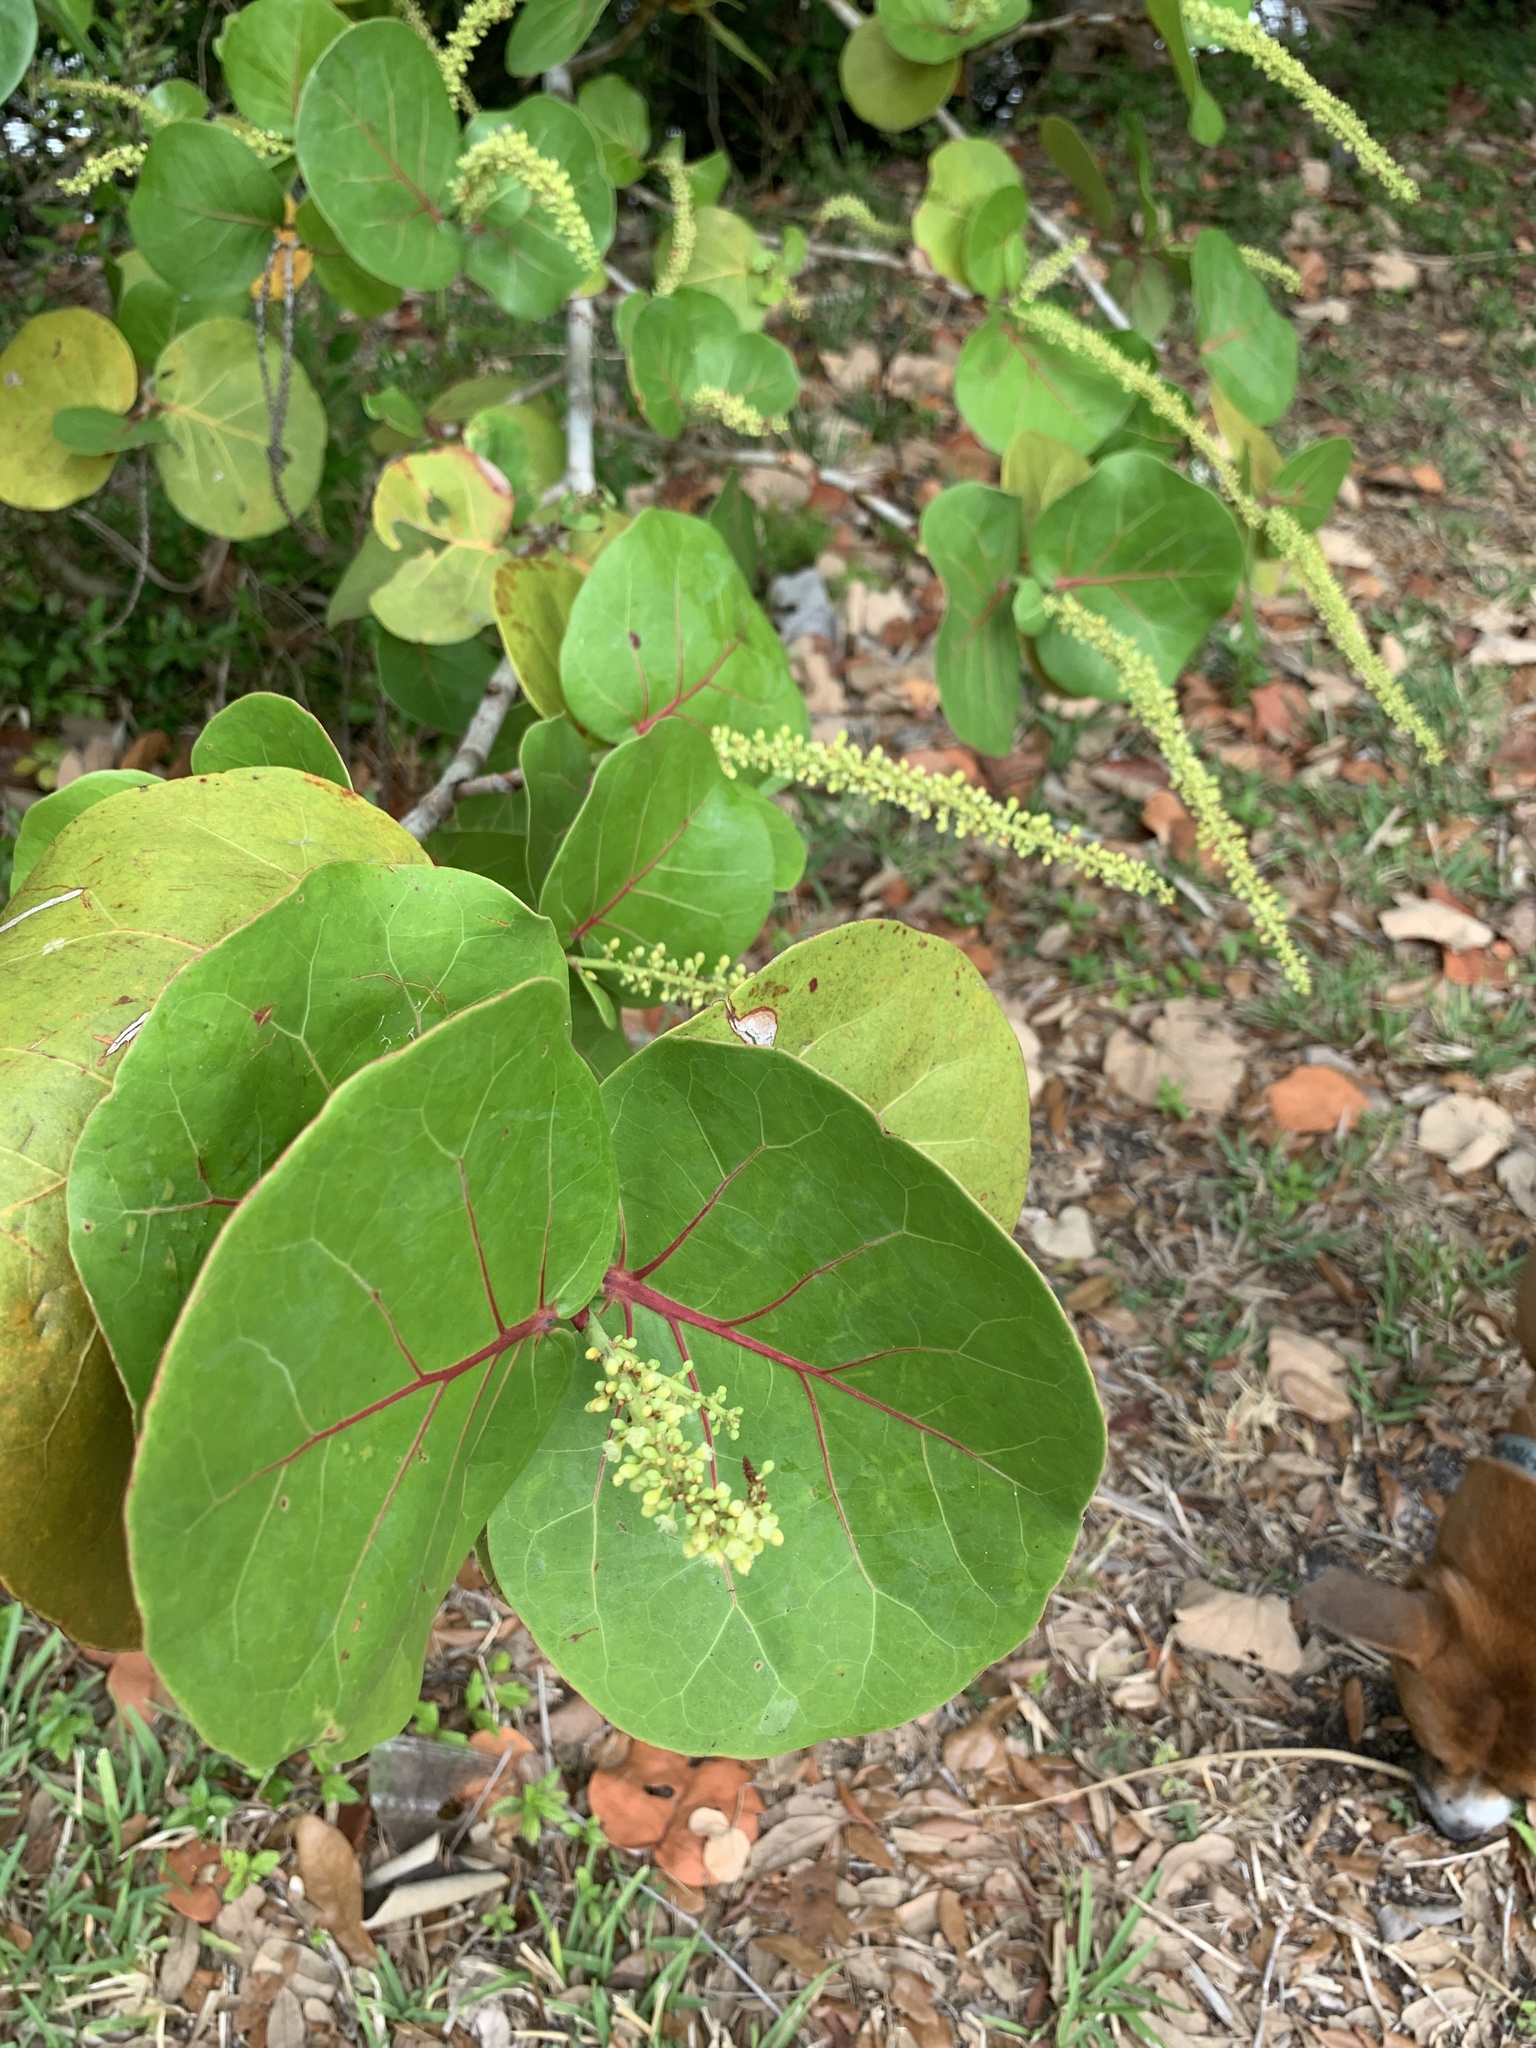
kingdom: Plantae
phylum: Tracheophyta
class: Magnoliopsida
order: Caryophyllales
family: Polygonaceae
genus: Coccoloba
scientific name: Coccoloba uvifera
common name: Seagrape
